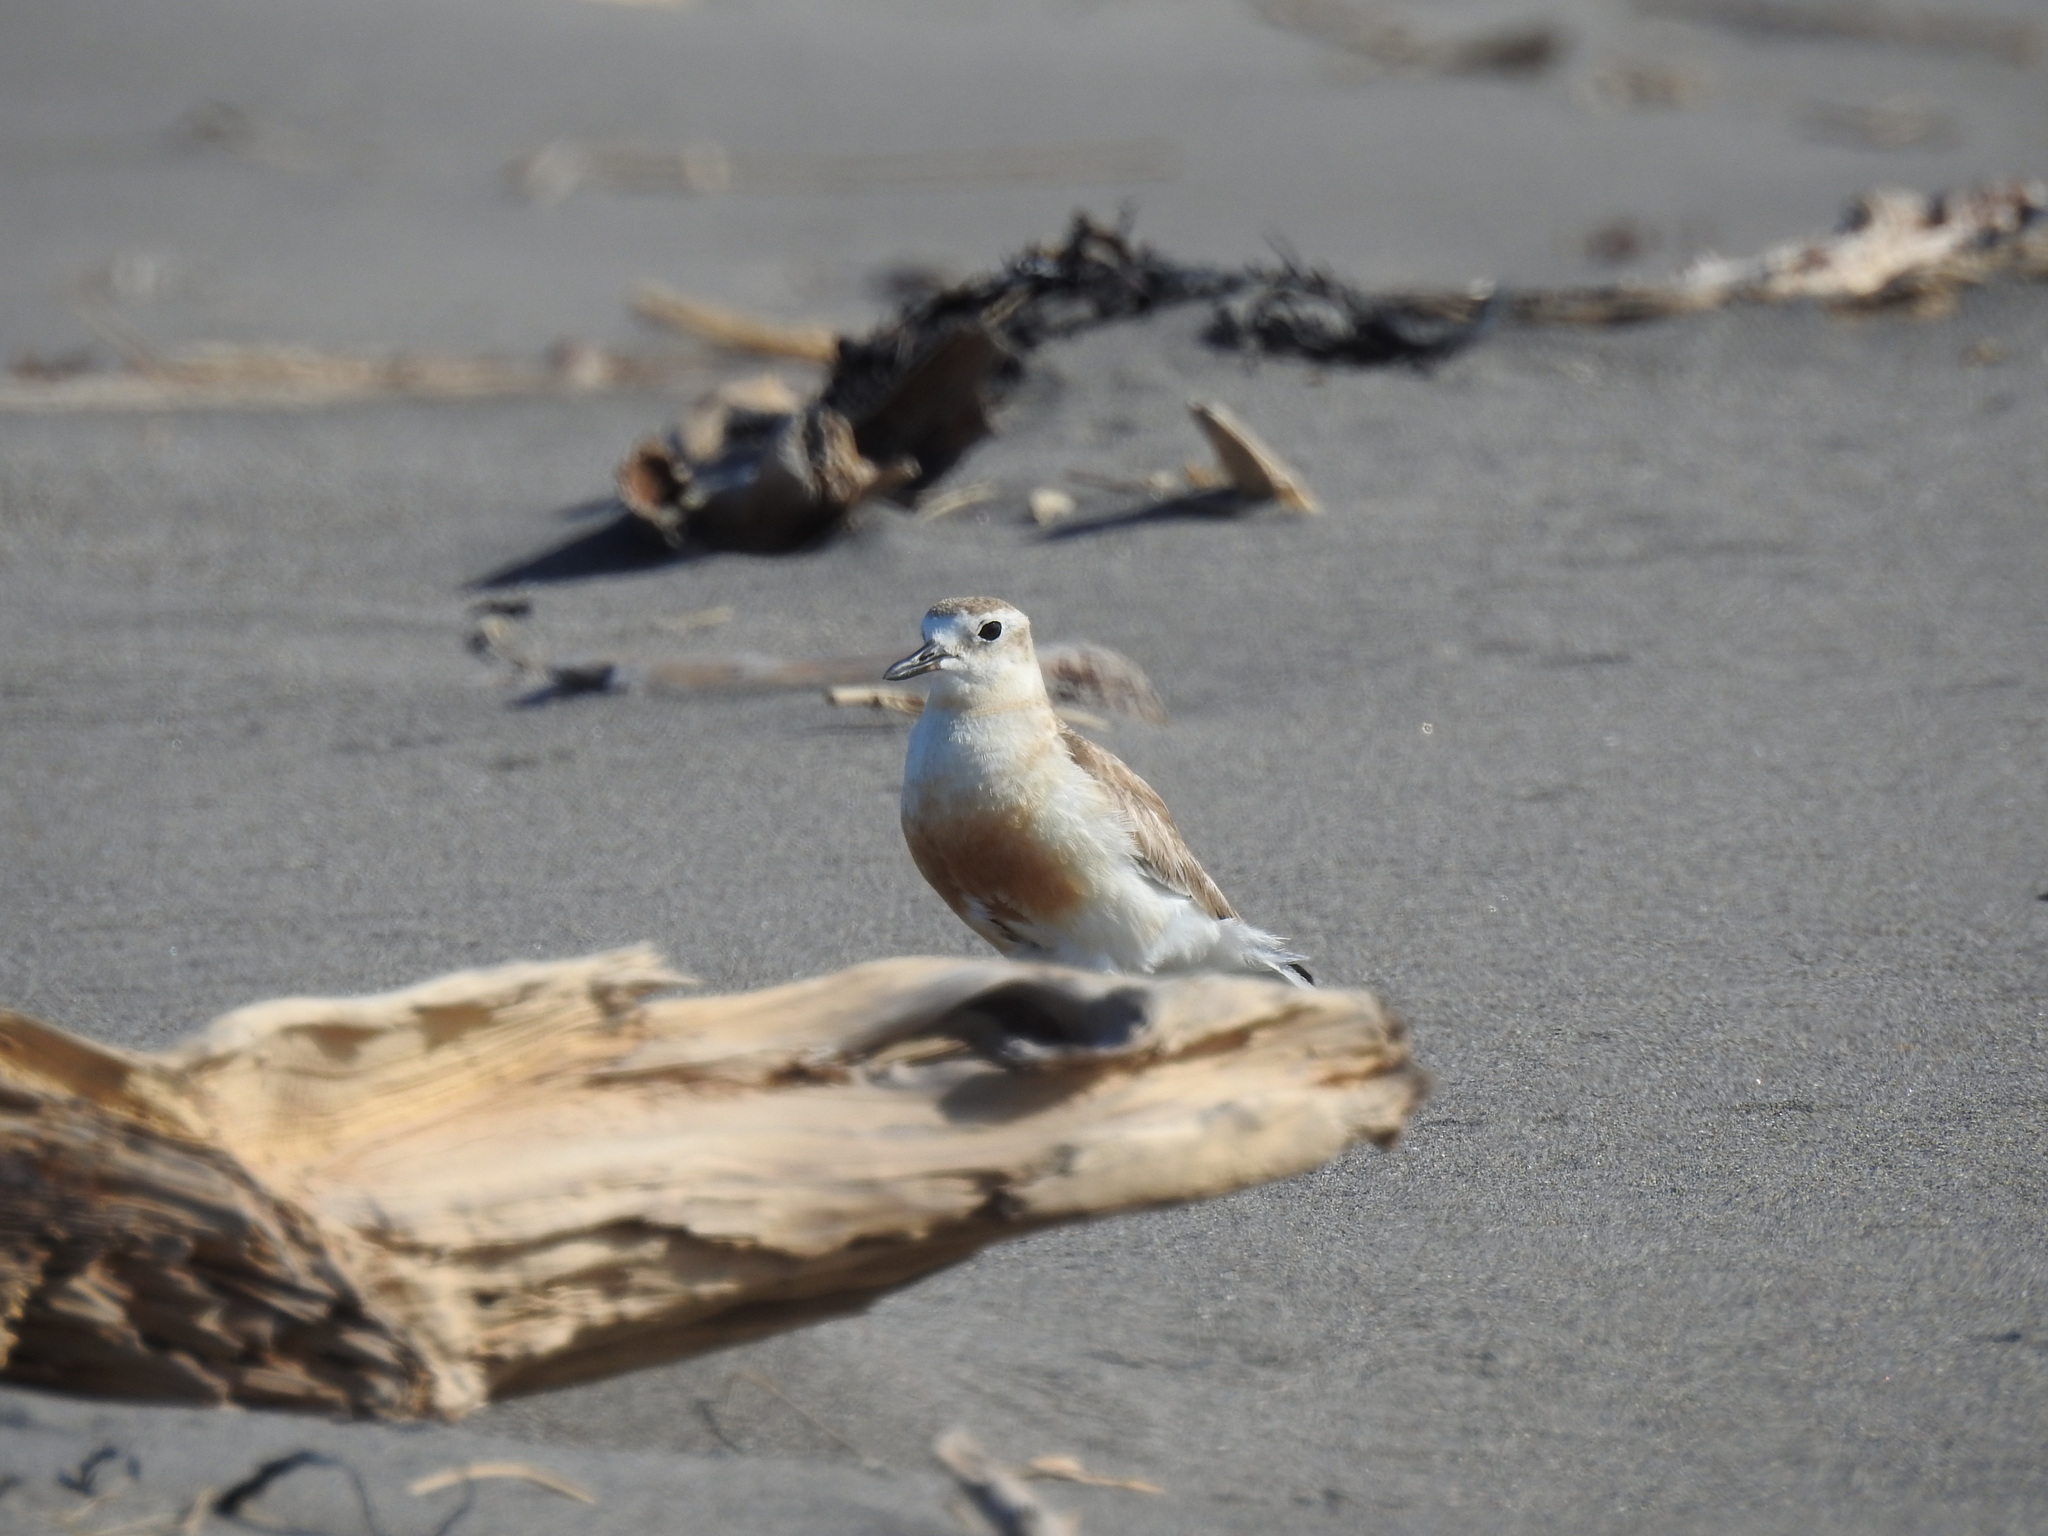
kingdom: Animalia
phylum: Chordata
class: Aves
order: Charadriiformes
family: Charadriidae
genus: Anarhynchus
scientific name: Anarhynchus
